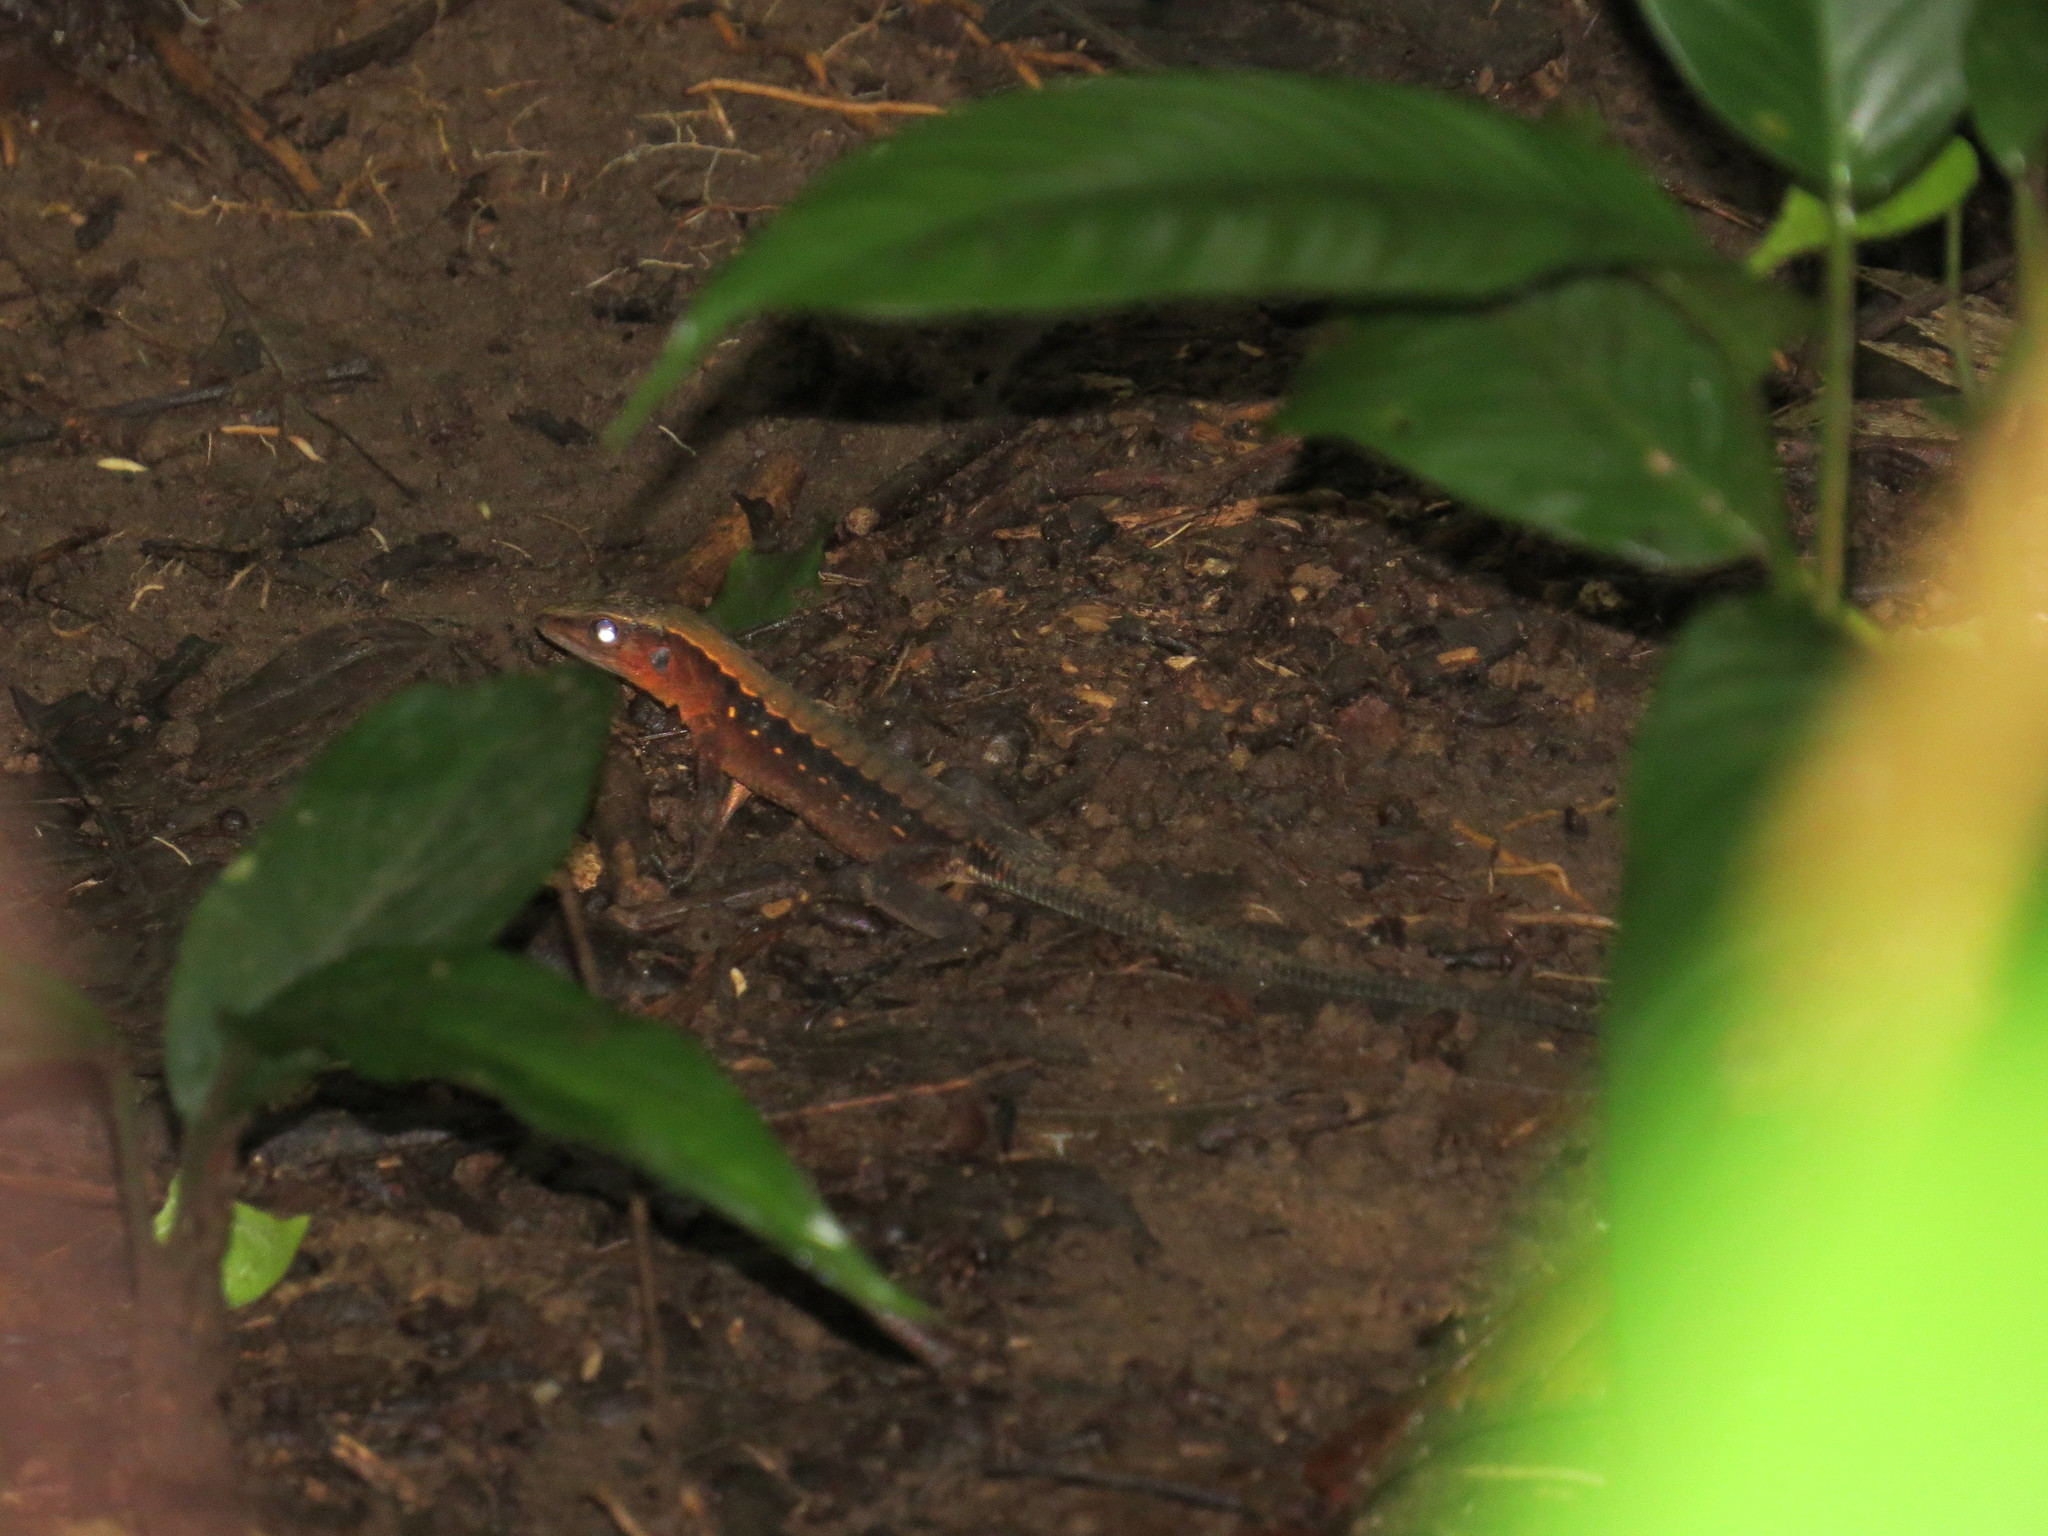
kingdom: Animalia
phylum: Chordata
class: Squamata
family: Teiidae
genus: Holcosus
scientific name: Holcosus leptophrys
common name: Delicate ameiva
